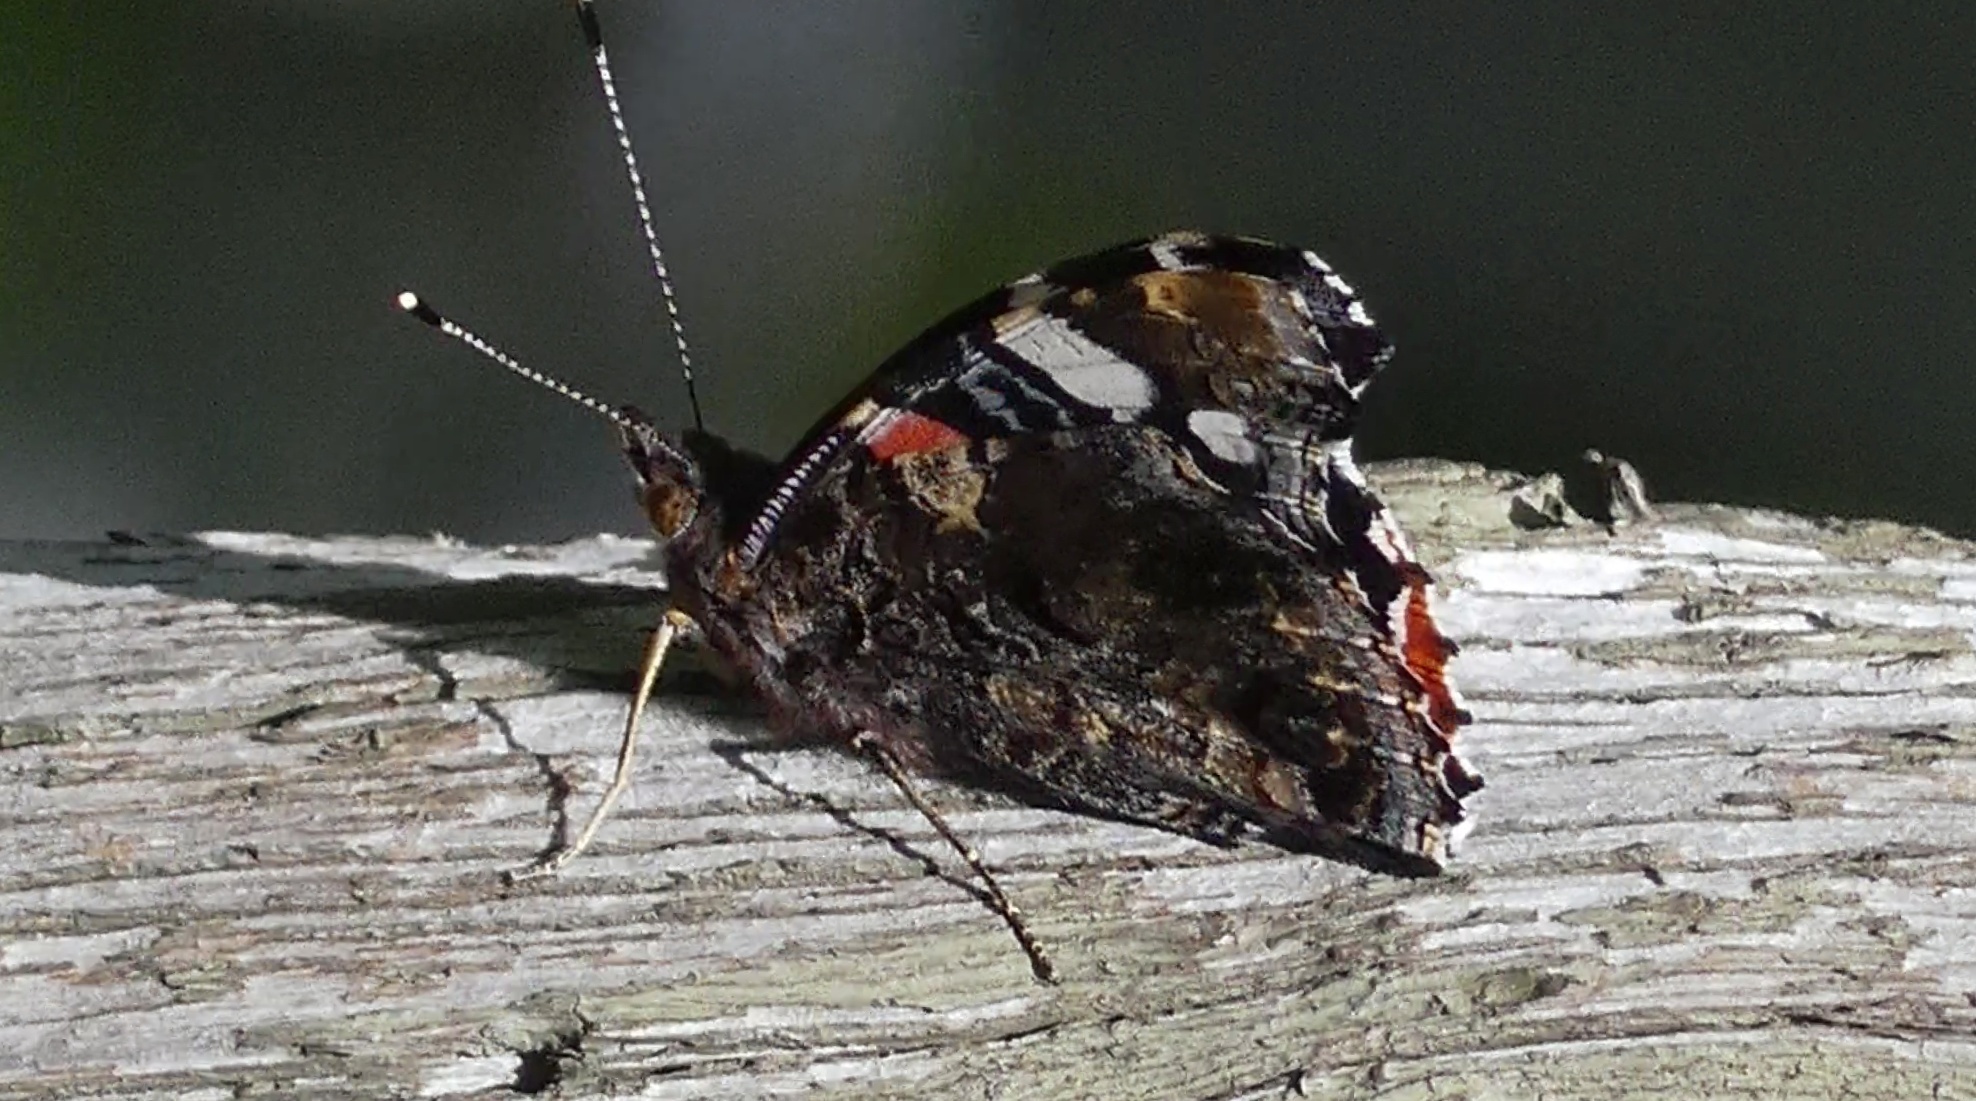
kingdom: Animalia
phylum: Arthropoda
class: Insecta
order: Lepidoptera
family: Nymphalidae
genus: Vanessa
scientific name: Vanessa atalanta
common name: Red admiral
